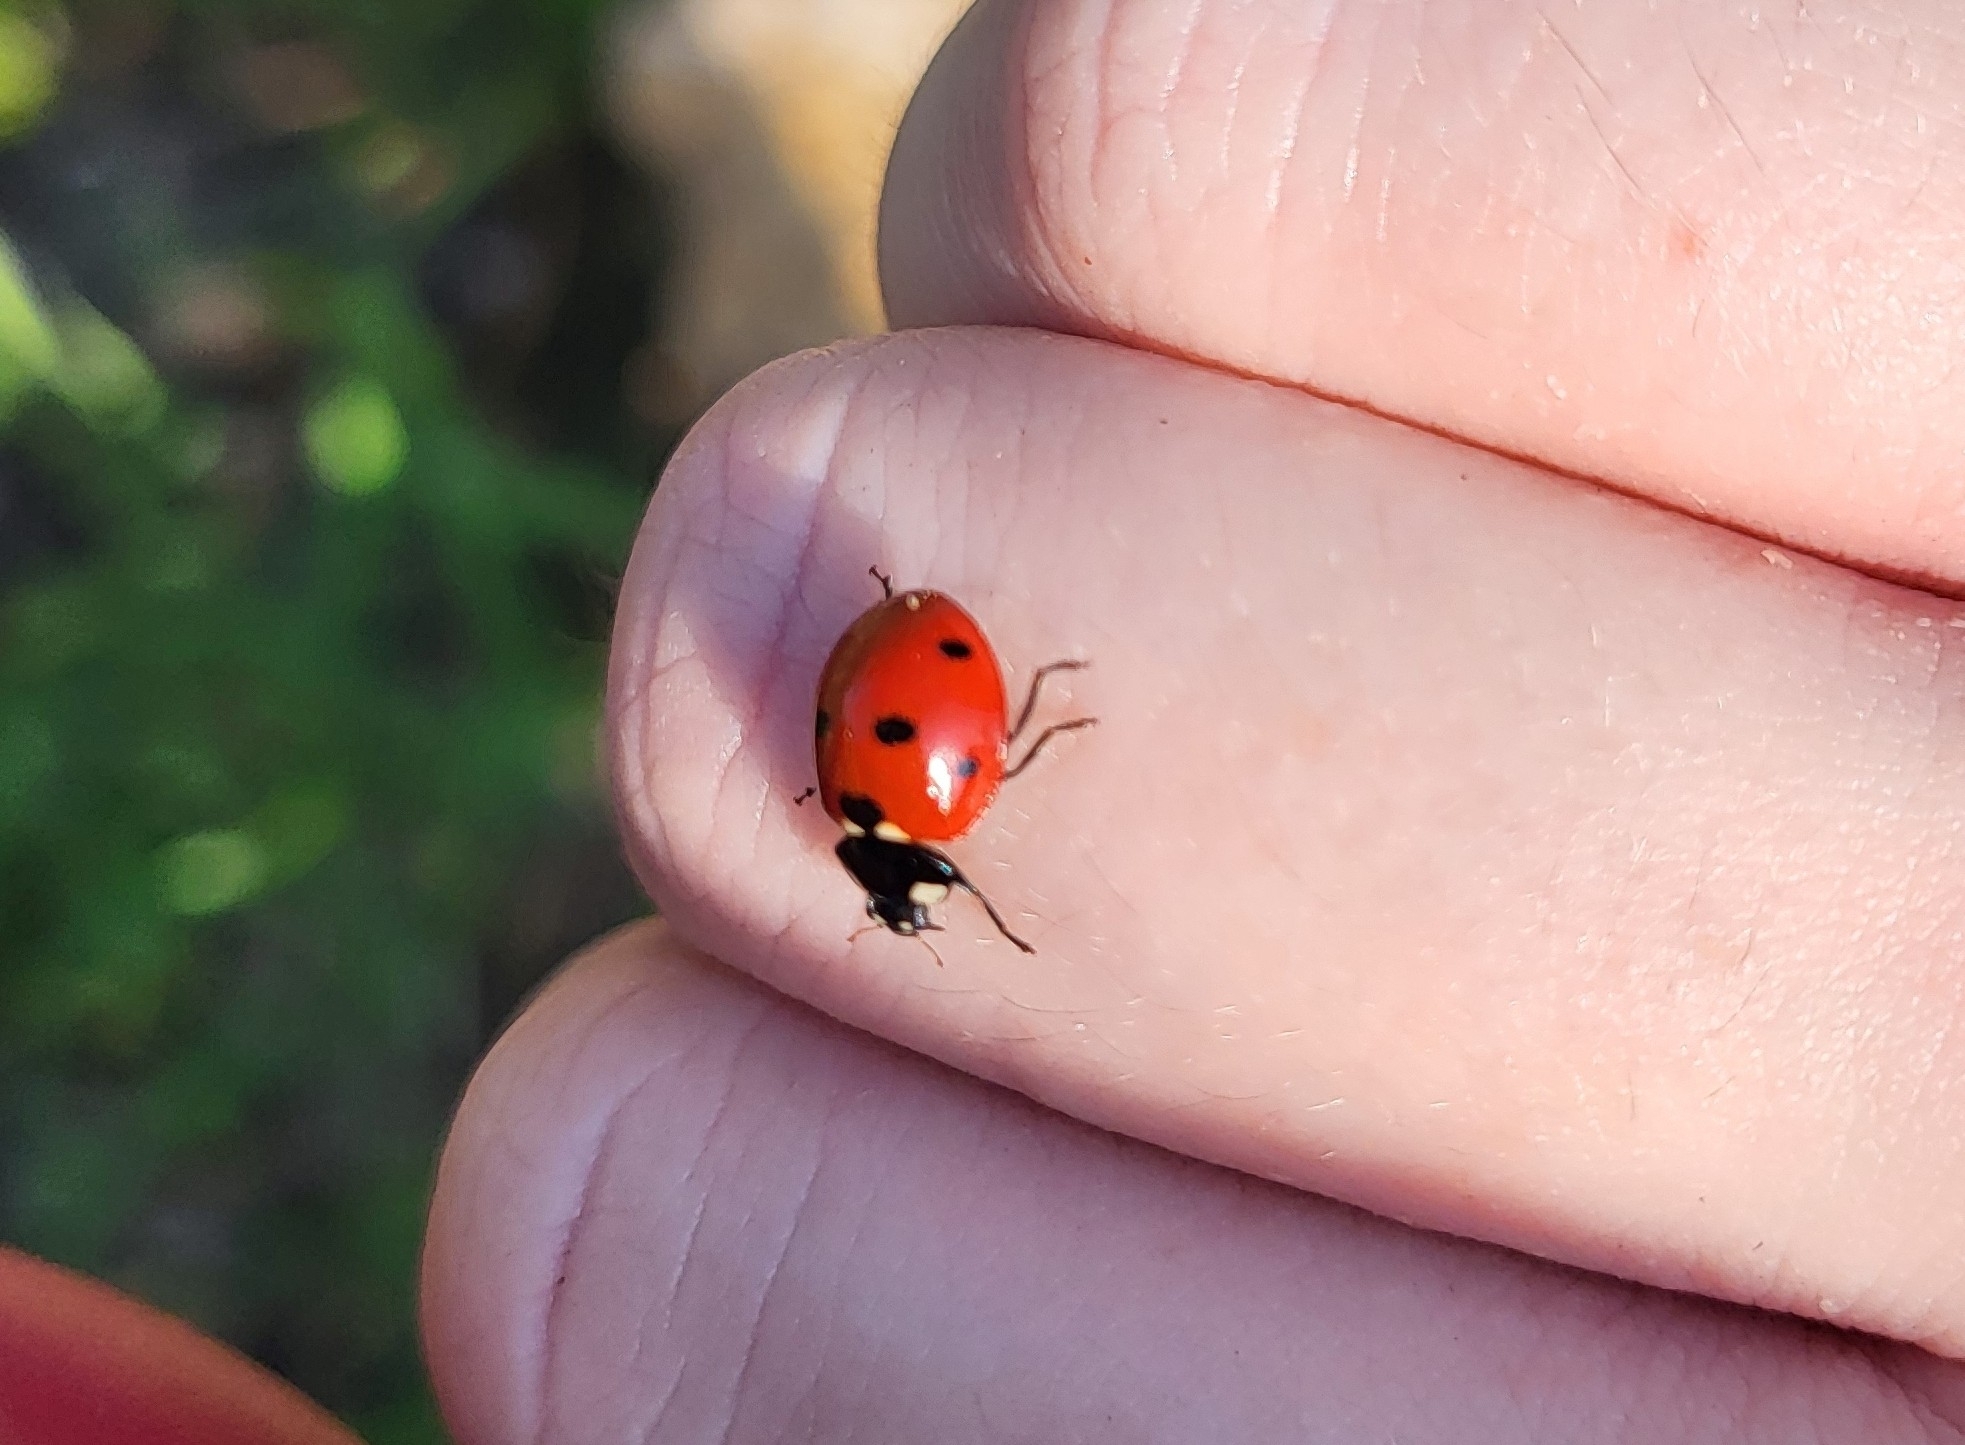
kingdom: Animalia
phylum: Arthropoda
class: Insecta
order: Coleoptera
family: Coccinellidae
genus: Coccinella
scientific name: Coccinella septempunctata
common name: Sevenspotted lady beetle
